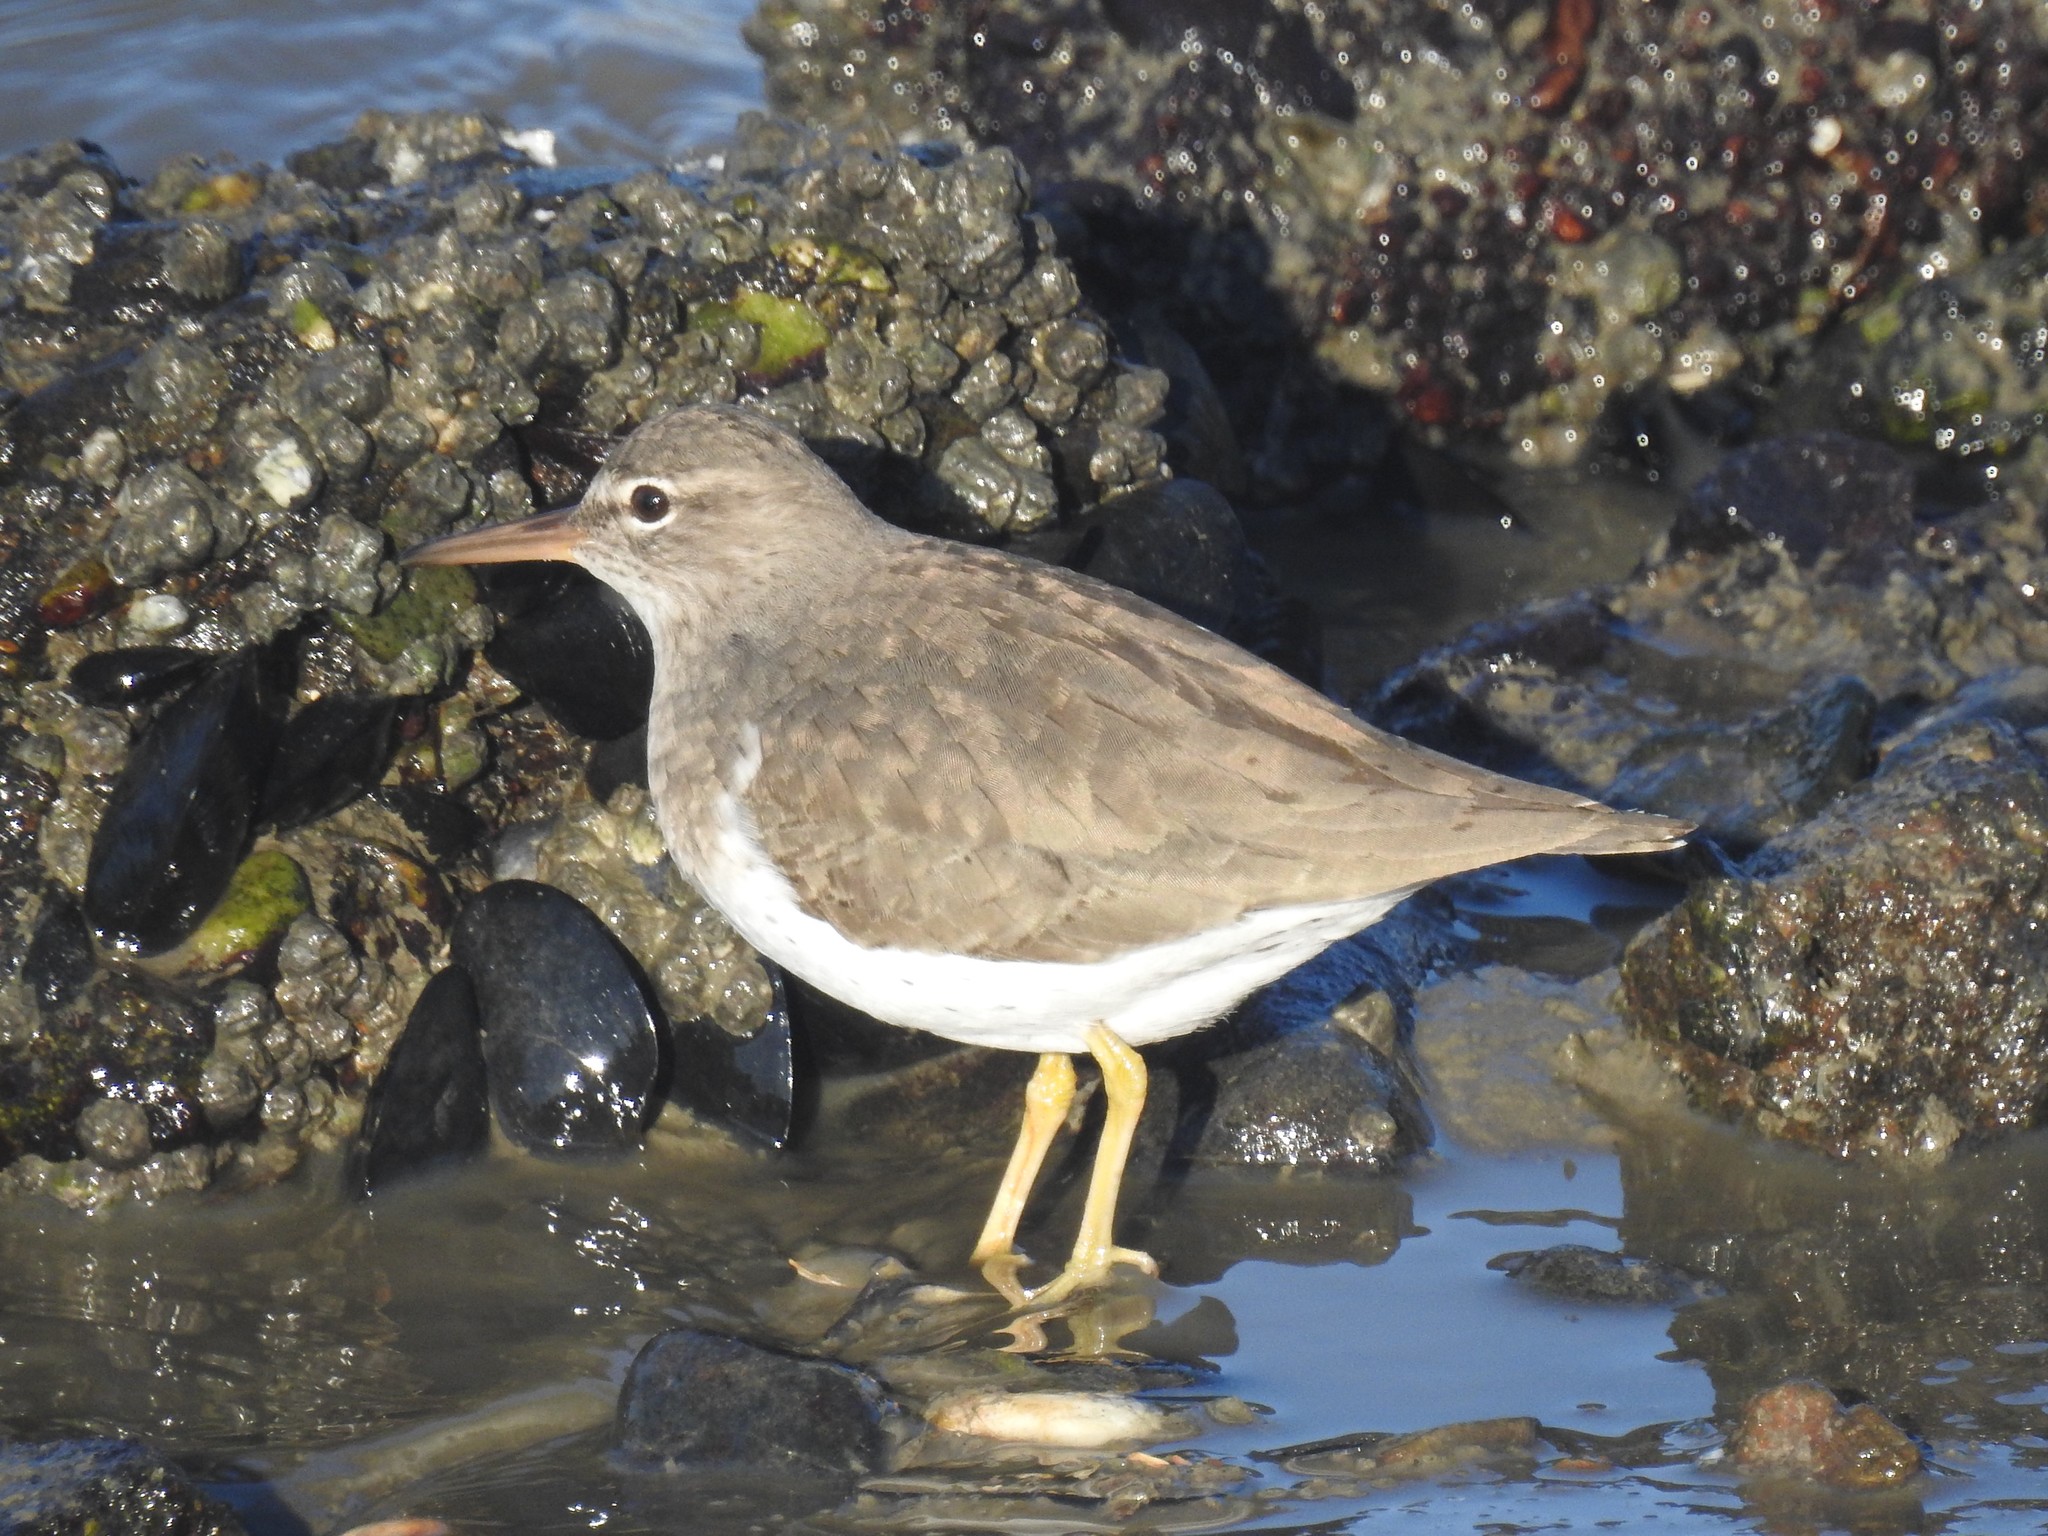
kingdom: Animalia
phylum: Chordata
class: Aves
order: Charadriiformes
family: Scolopacidae
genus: Actitis
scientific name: Actitis macularius
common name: Spotted sandpiper
